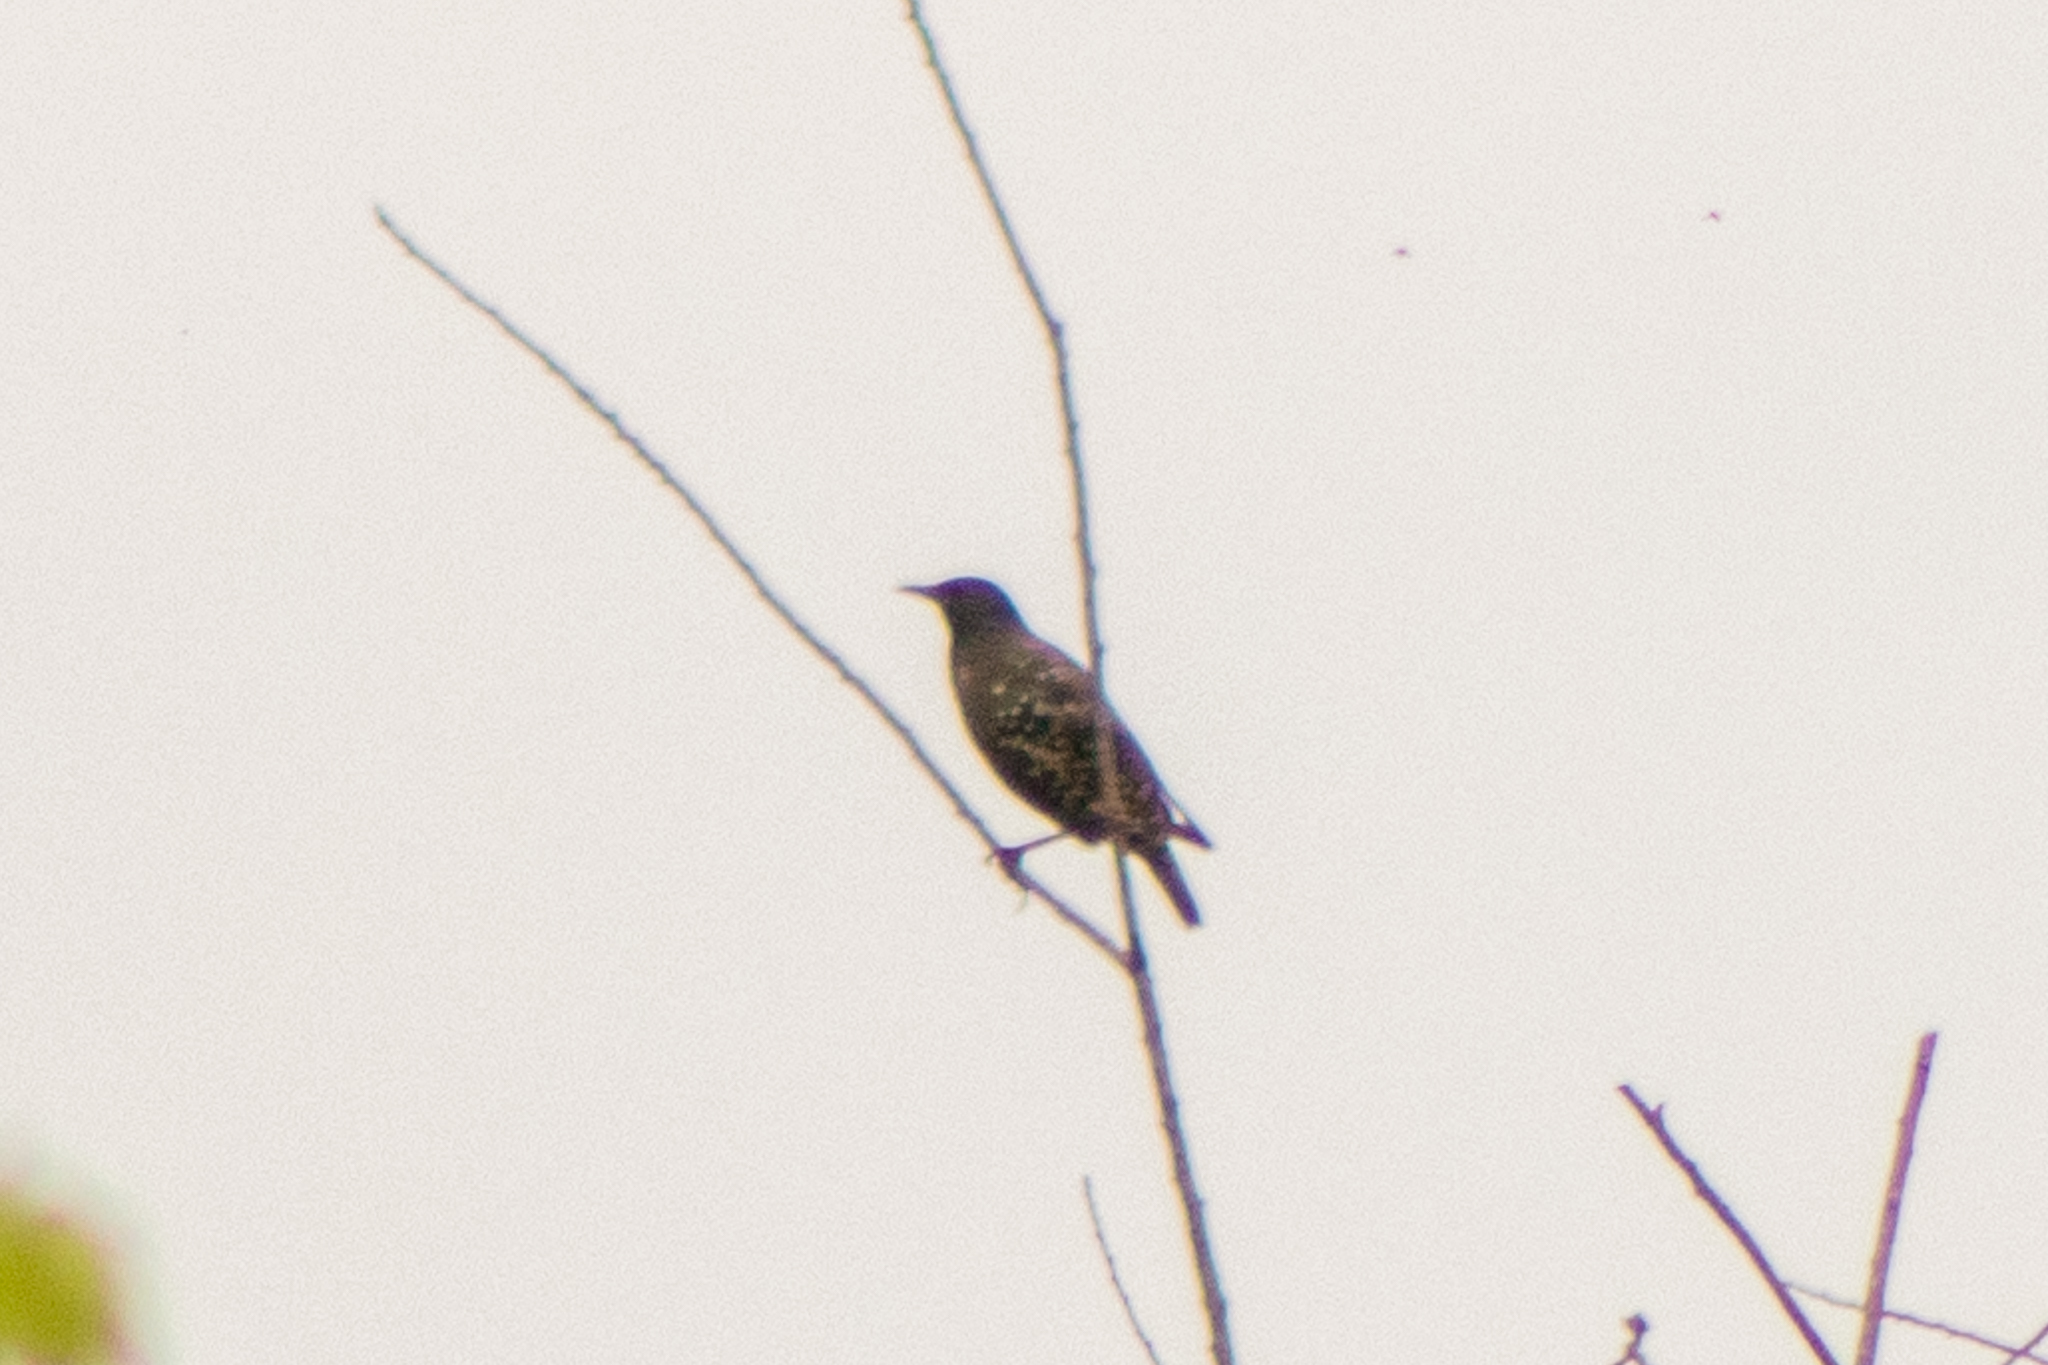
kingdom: Animalia
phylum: Chordata
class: Aves
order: Passeriformes
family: Sturnidae
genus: Sturnus
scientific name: Sturnus vulgaris
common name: Common starling
